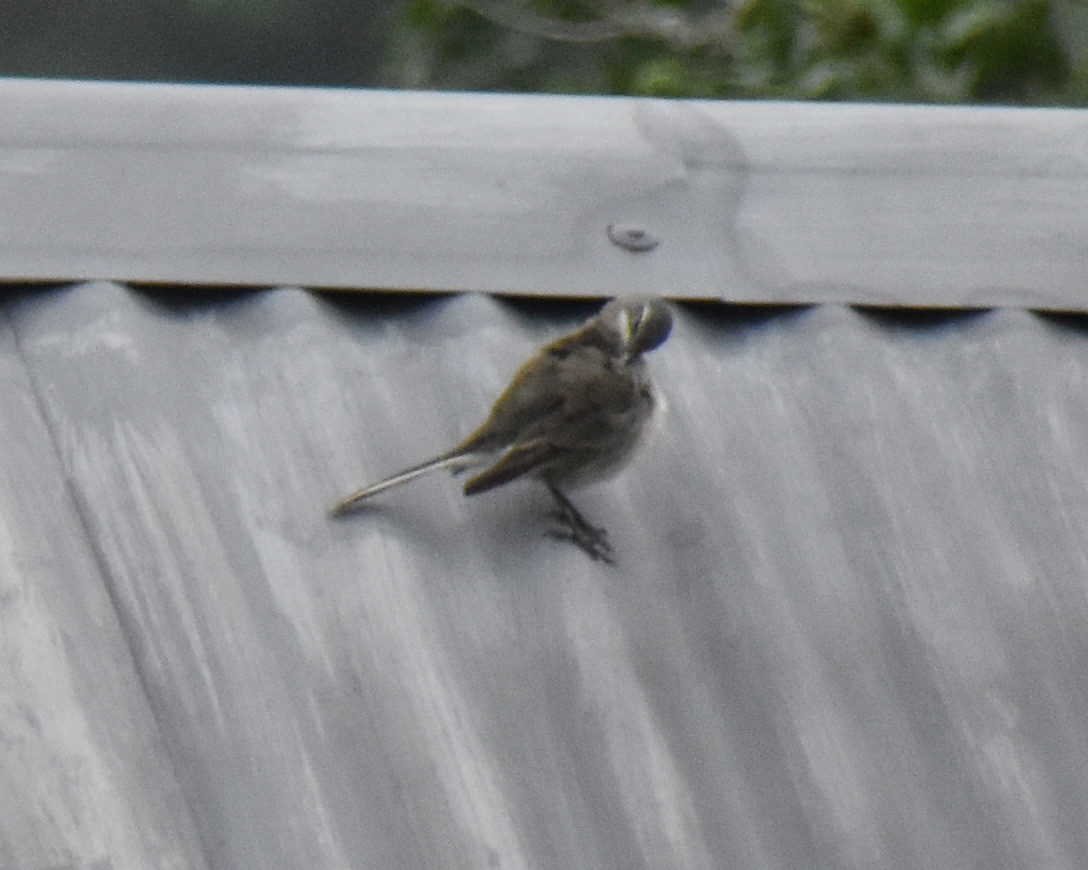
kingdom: Animalia
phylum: Chordata
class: Aves
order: Passeriformes
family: Motacillidae
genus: Motacilla
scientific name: Motacilla capensis
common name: Cape wagtail
